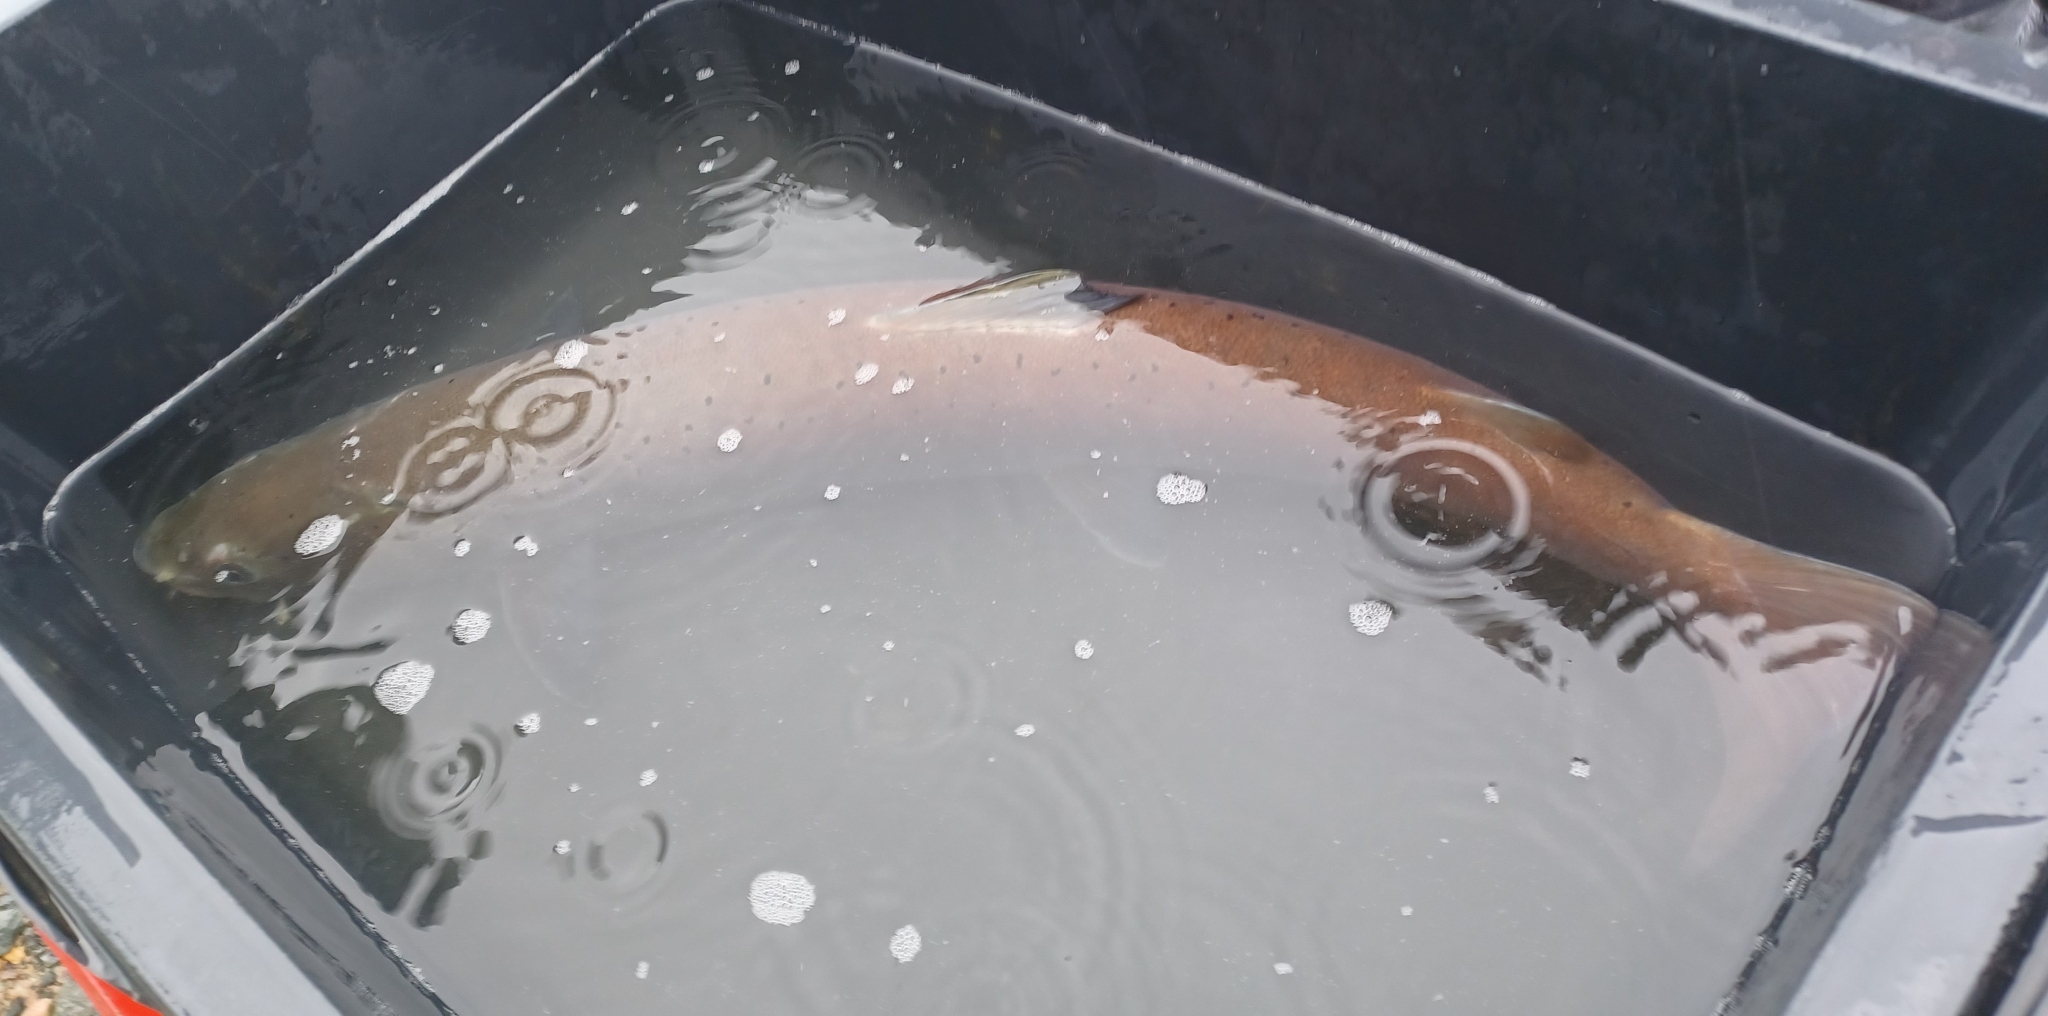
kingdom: Animalia
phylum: Chordata
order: Salmoniformes
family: Salmonidae
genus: Hucho
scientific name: Hucho hucho
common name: Huchen (danube salmon)
